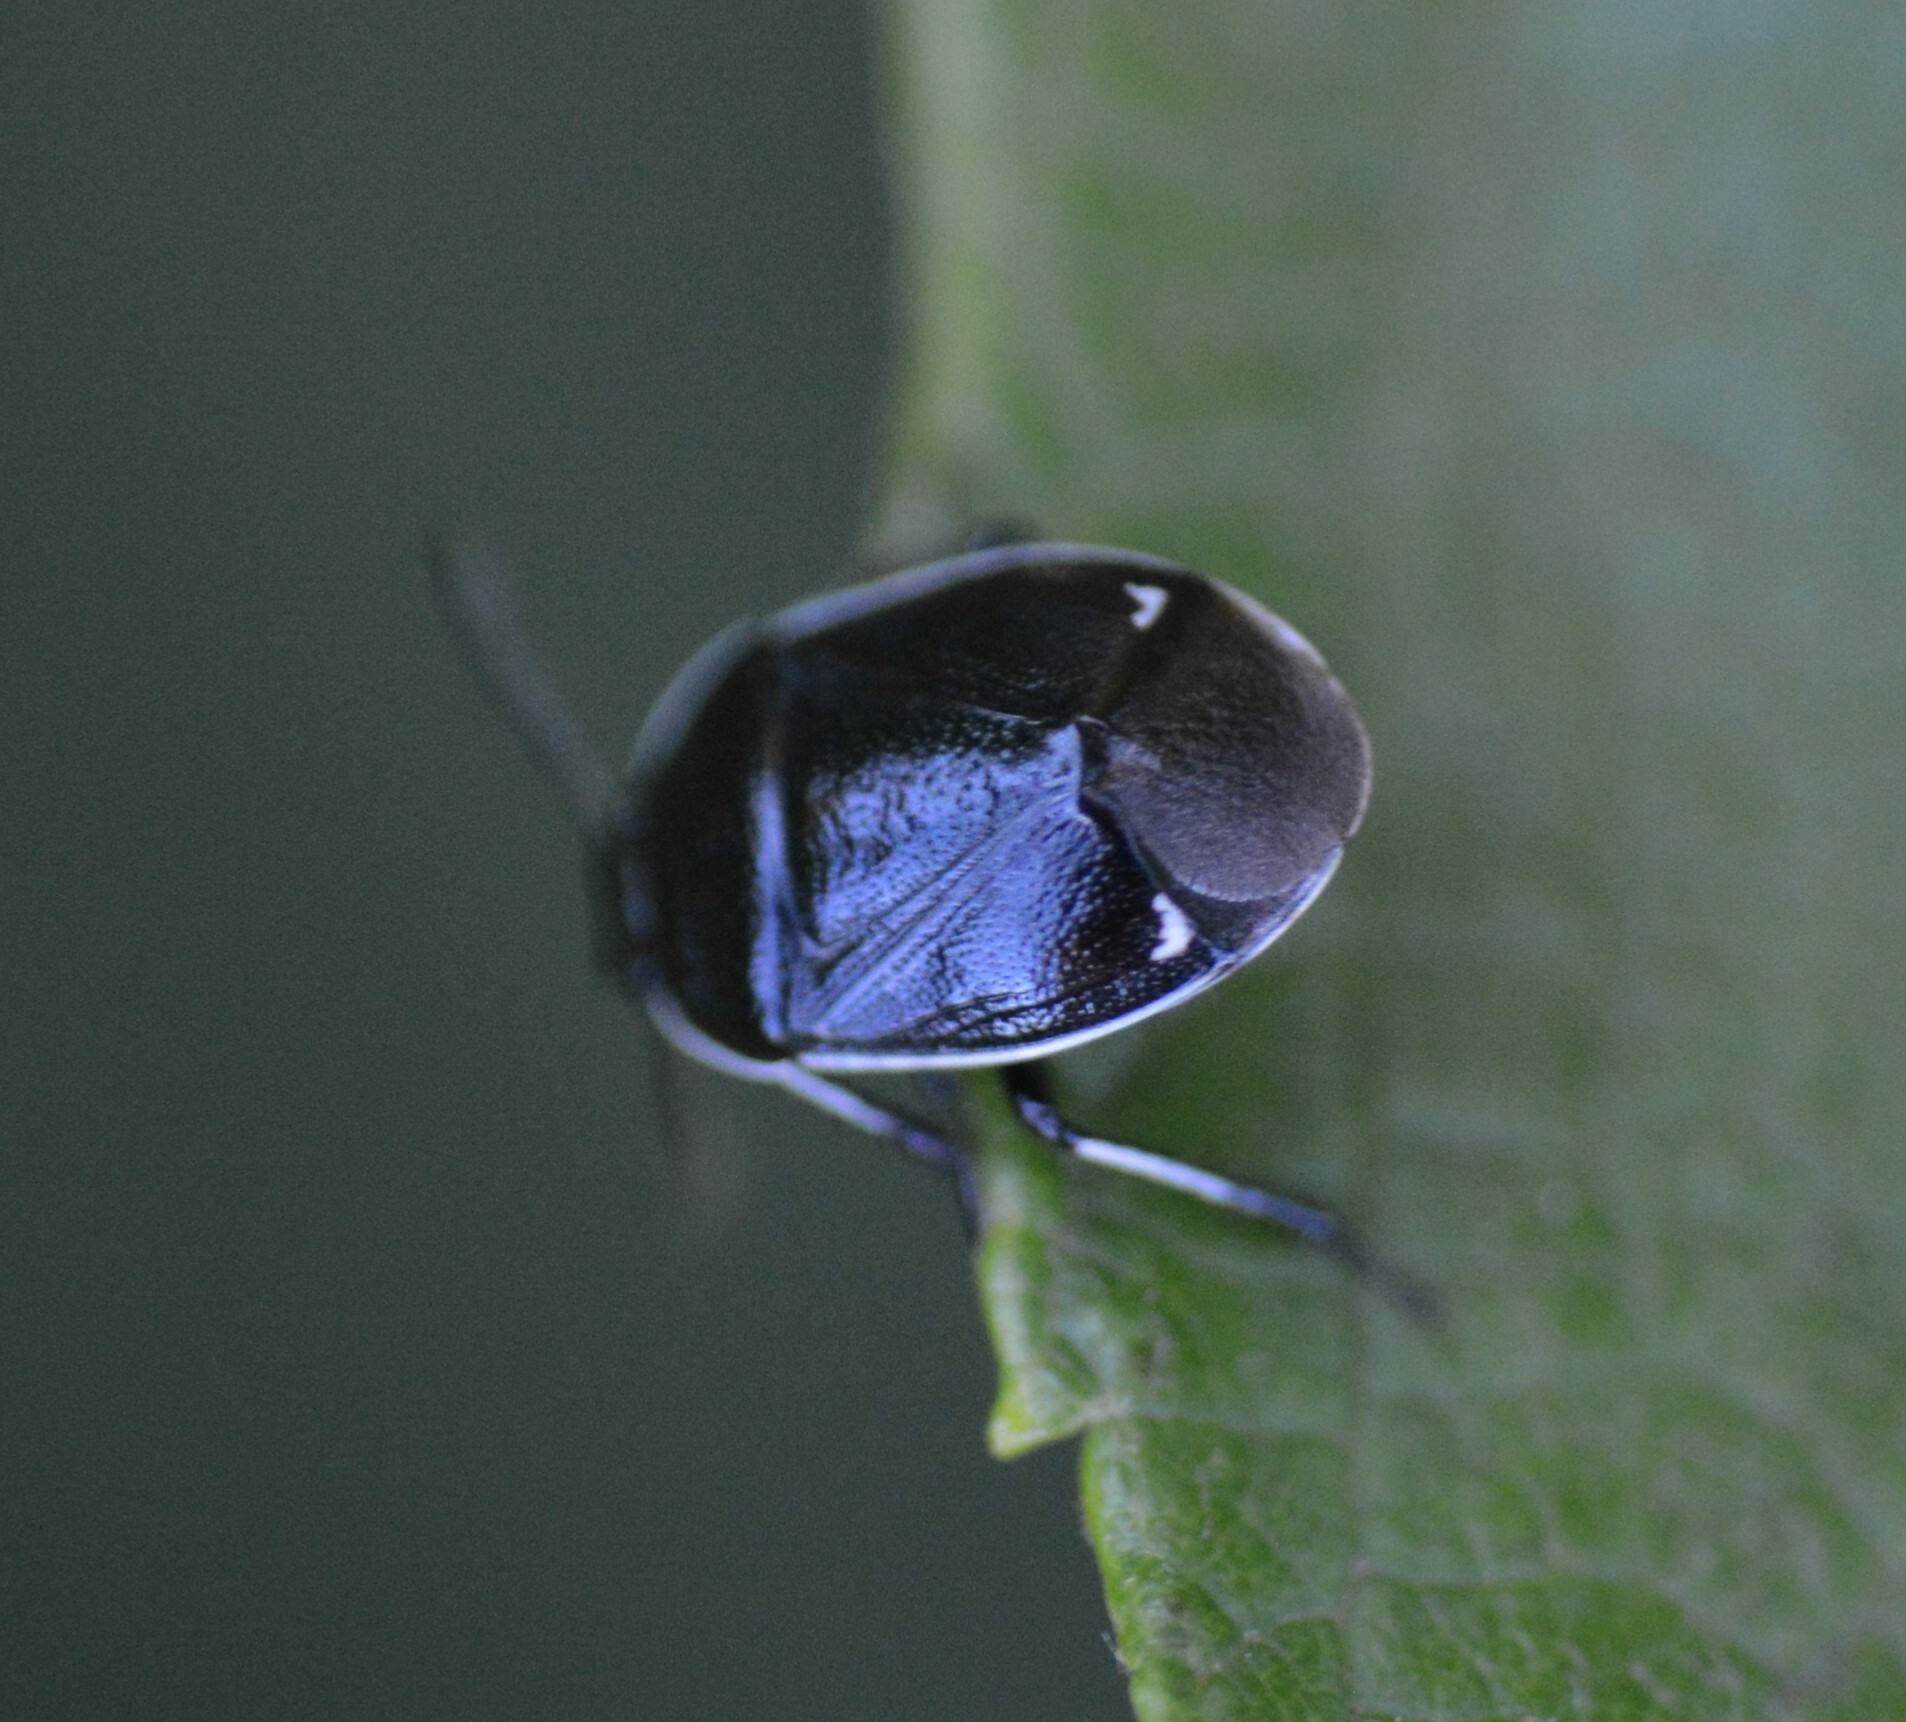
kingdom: Animalia
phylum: Arthropoda
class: Insecta
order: Hemiptera
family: Cydnidae
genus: Sehirus
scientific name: Sehirus cinctus
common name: White-margined burrower bug
